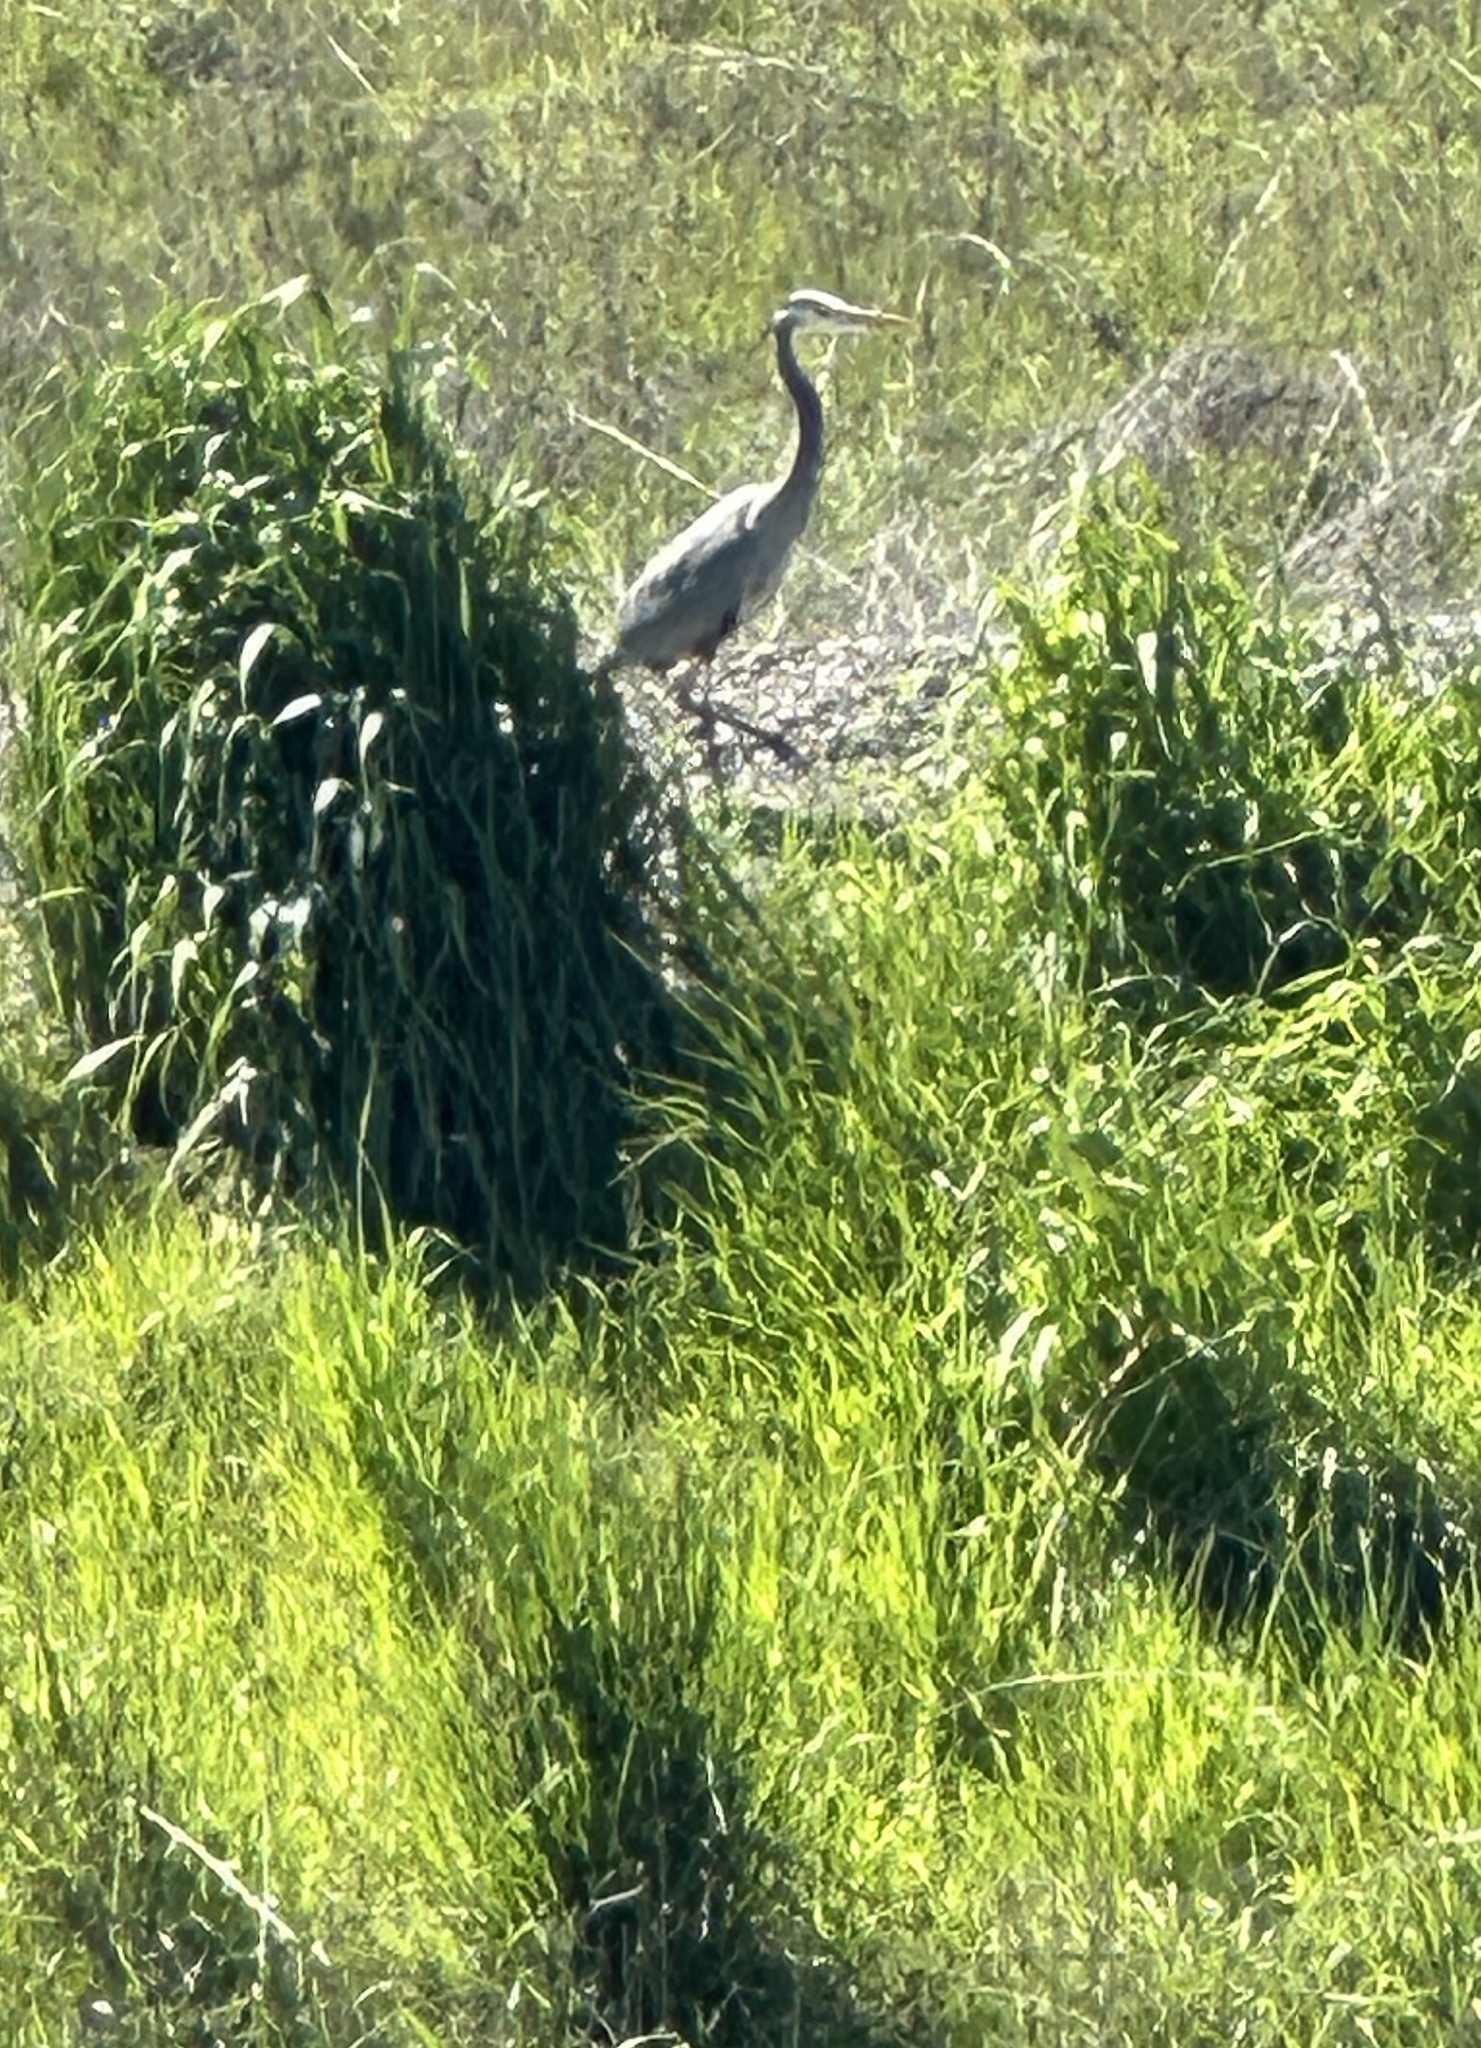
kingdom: Animalia
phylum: Chordata
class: Aves
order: Pelecaniformes
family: Ardeidae
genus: Ardea
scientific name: Ardea herodias
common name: Great blue heron
